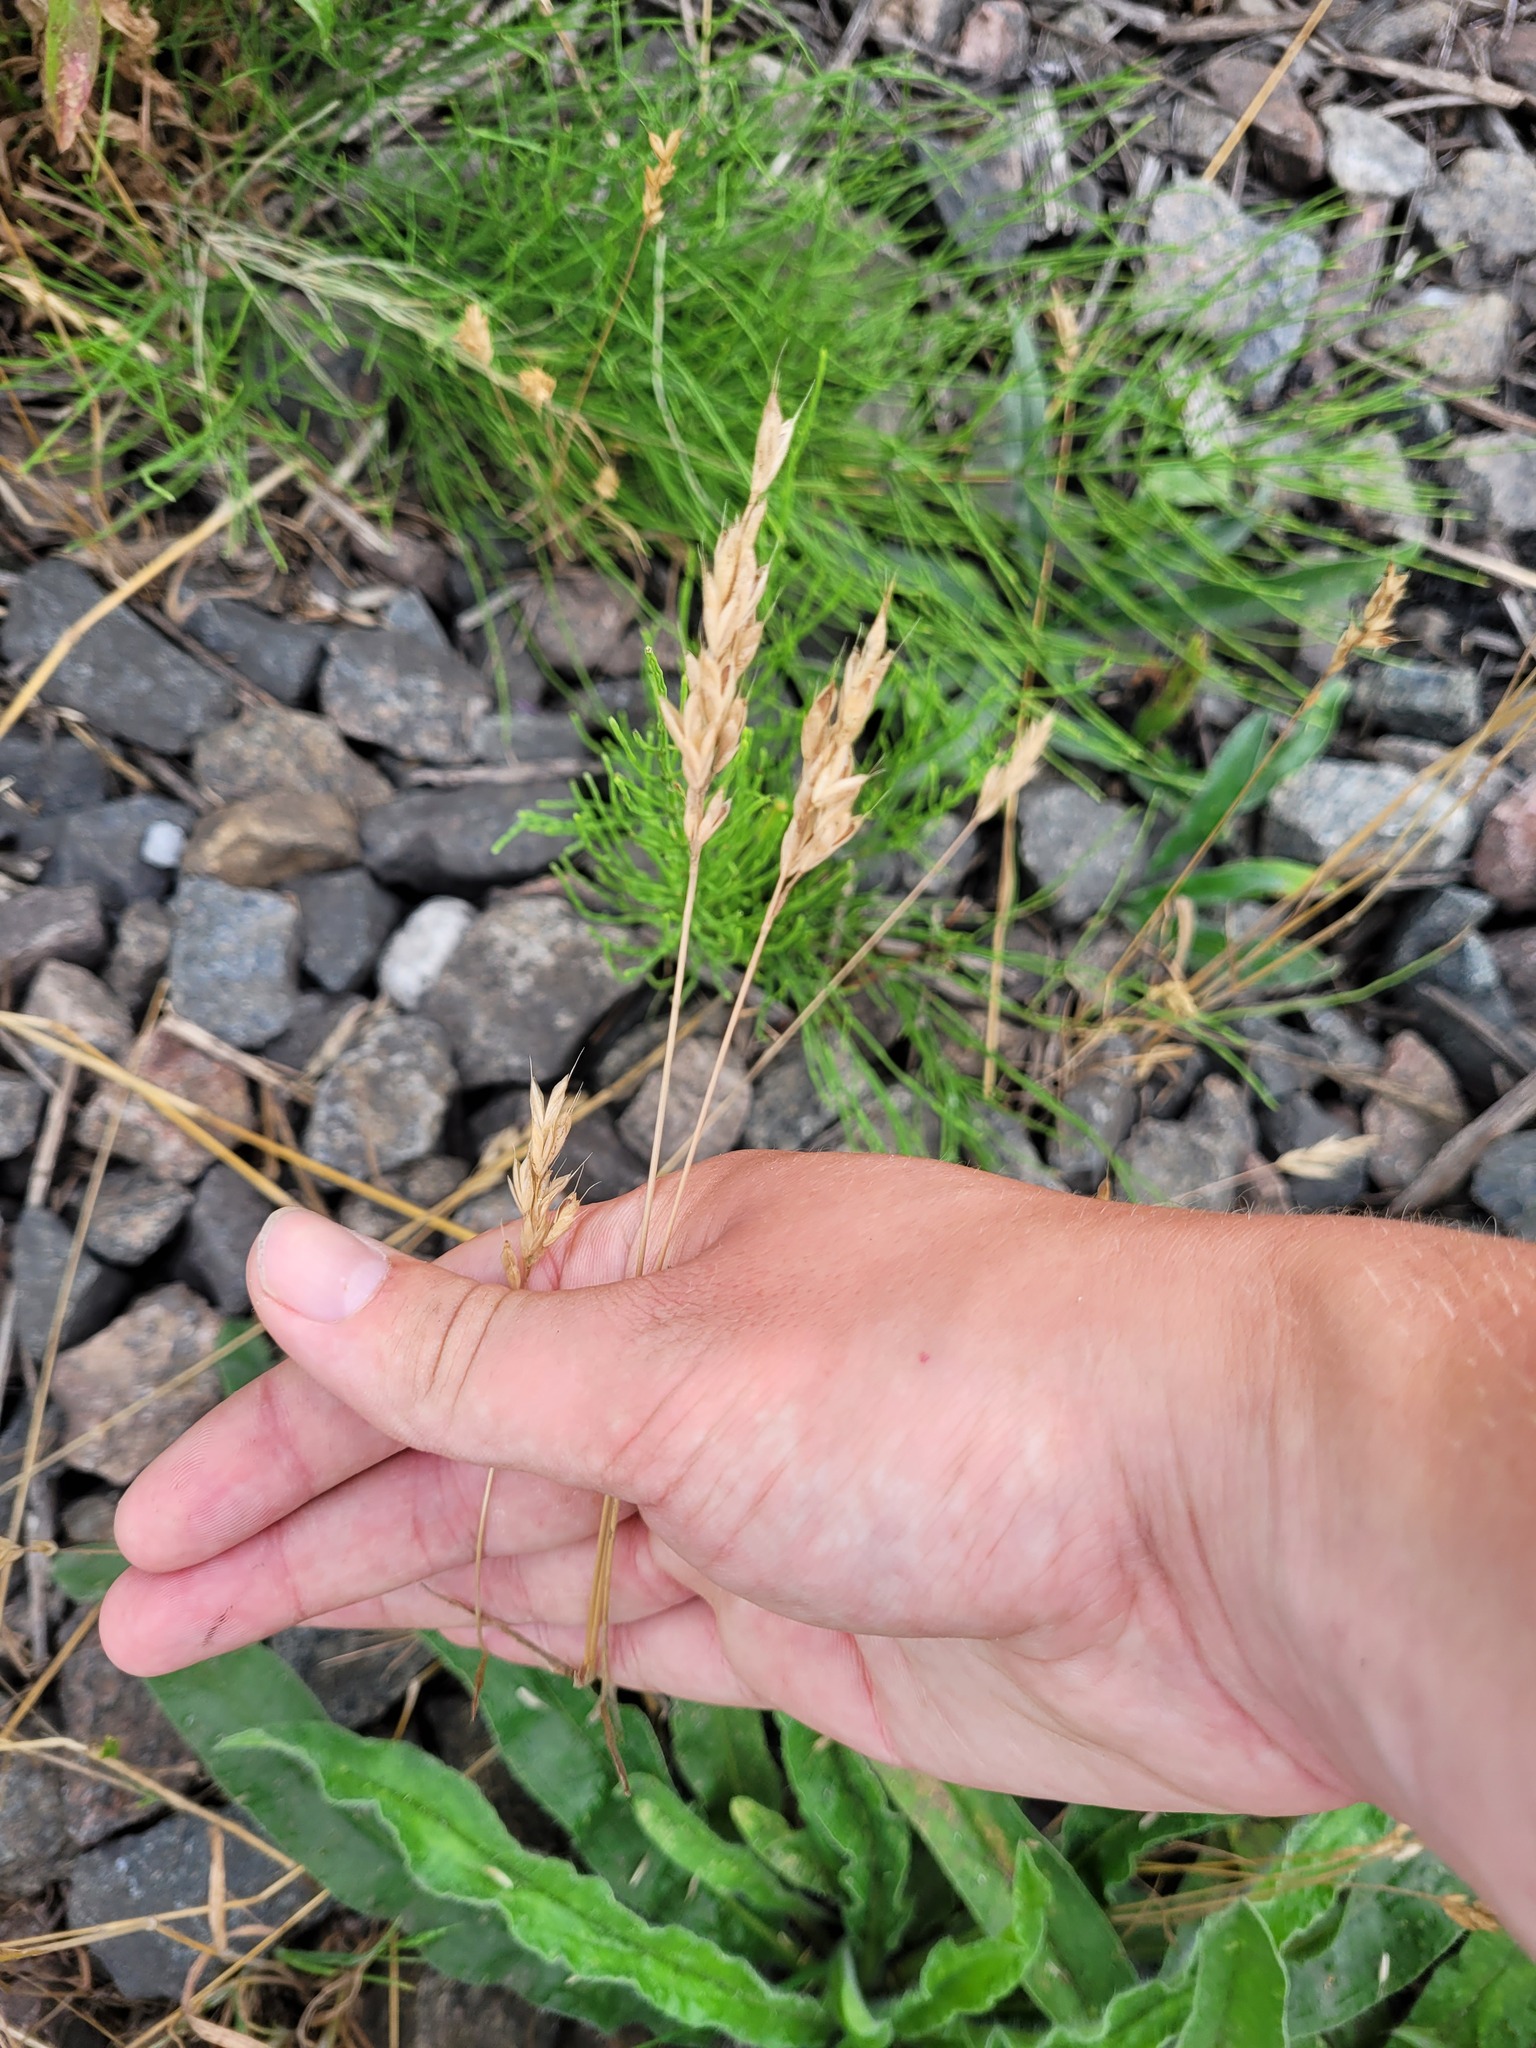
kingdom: Plantae
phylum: Tracheophyta
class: Liliopsida
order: Poales
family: Poaceae
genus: Bromus
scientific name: Bromus hordeaceus
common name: Soft brome
